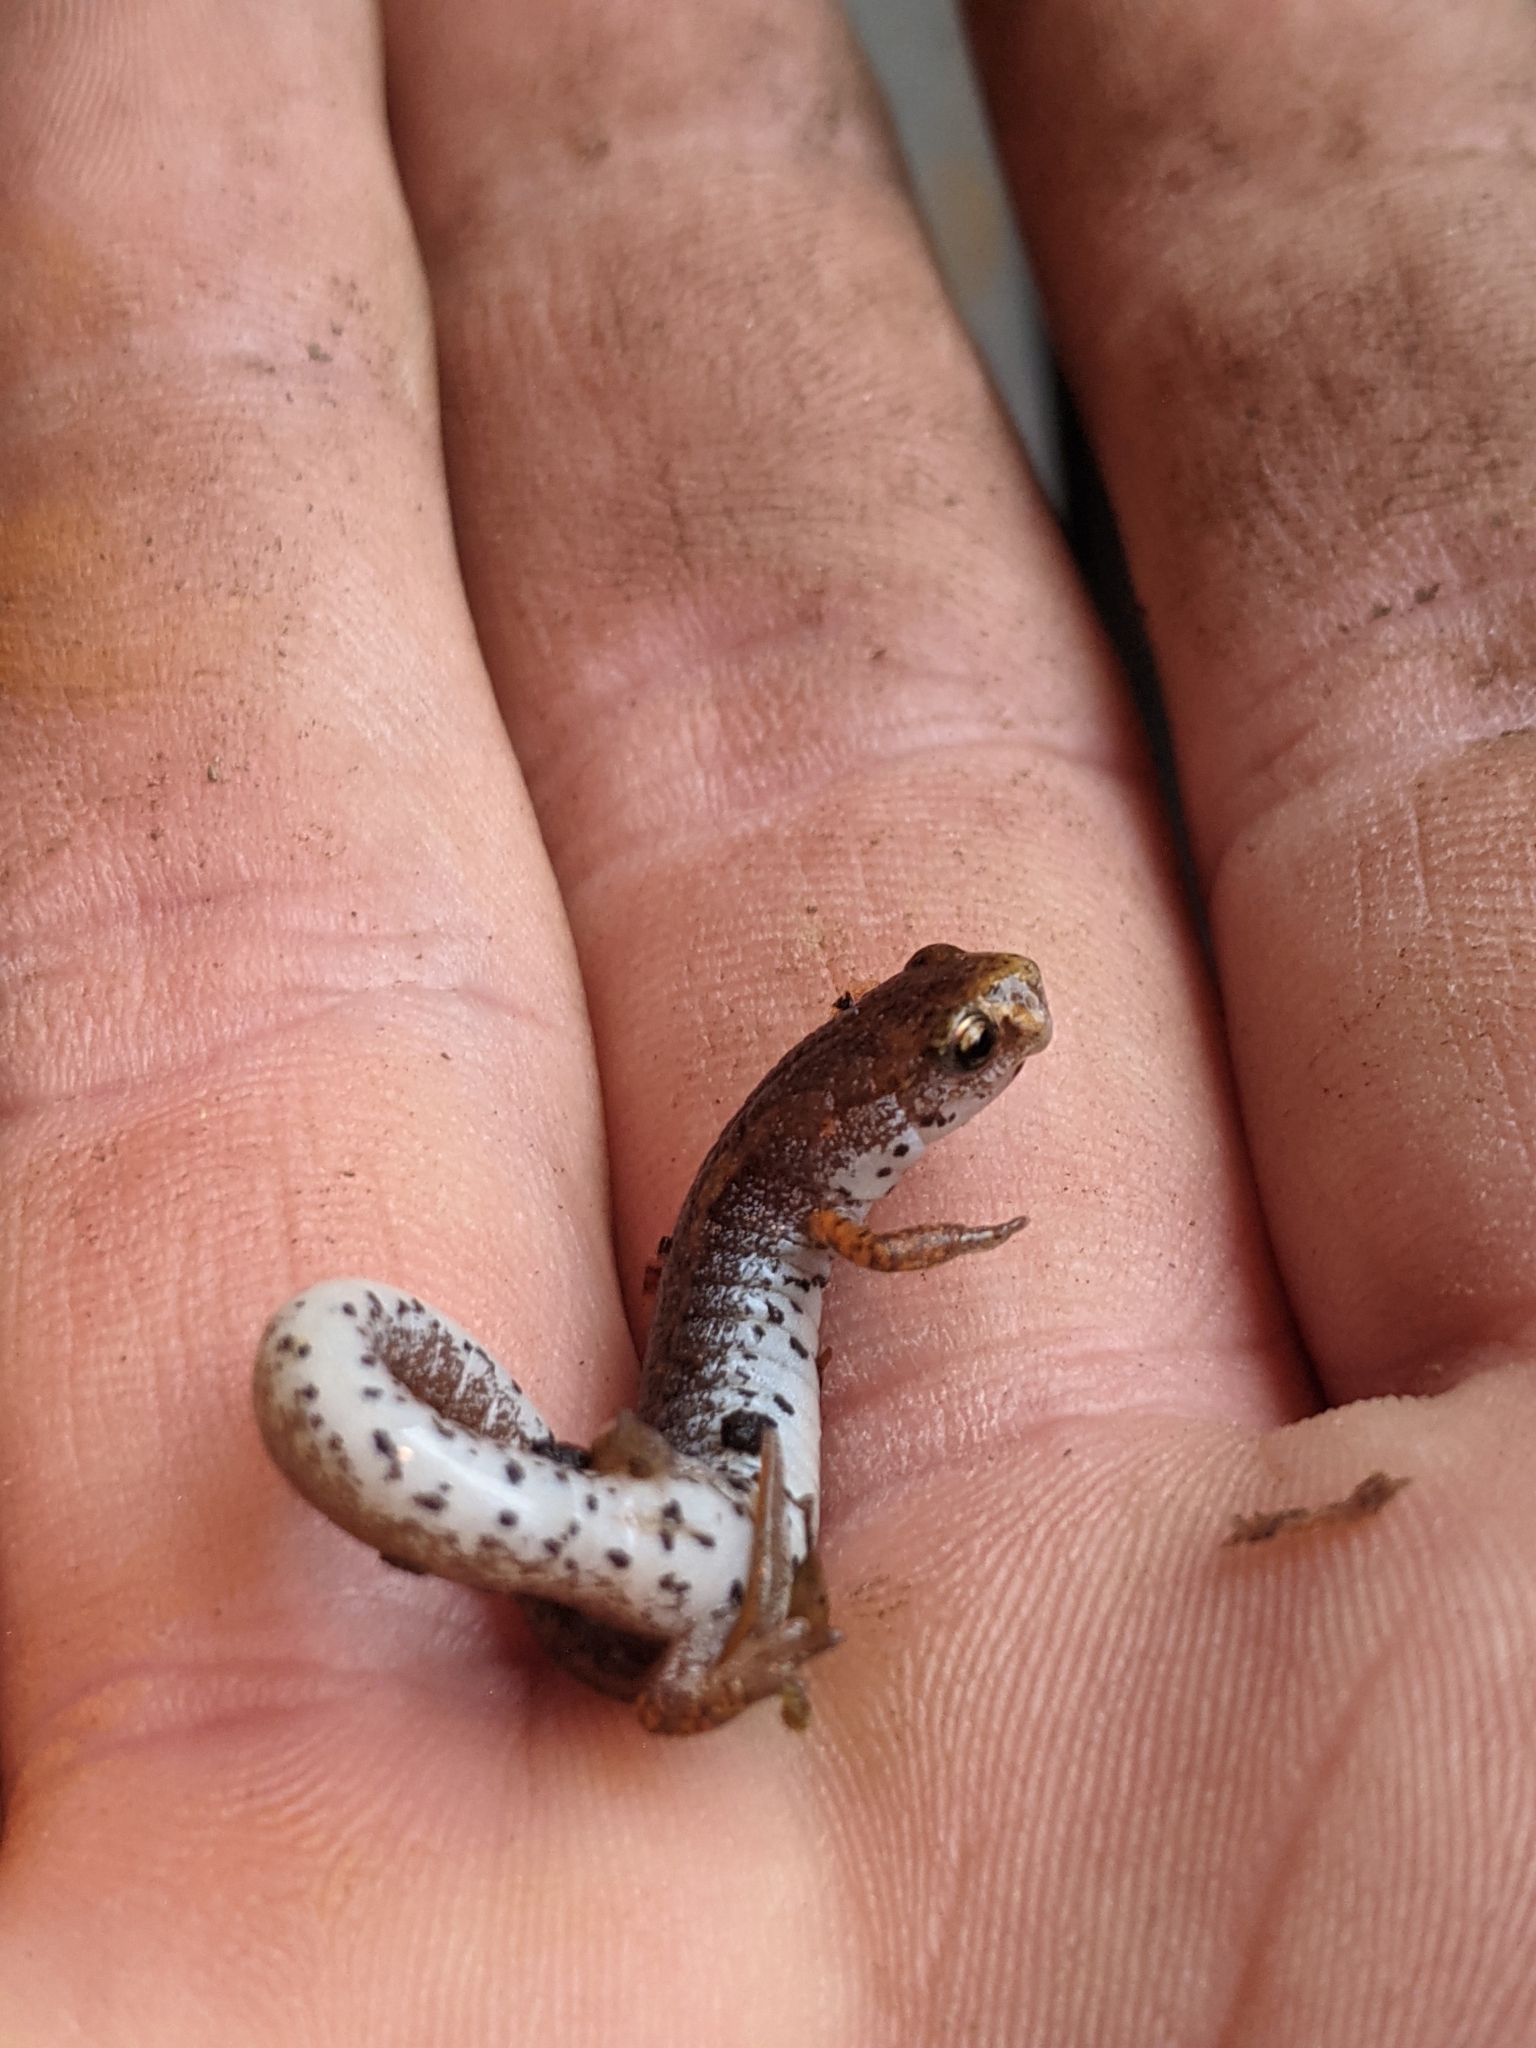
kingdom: Animalia
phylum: Chordata
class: Amphibia
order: Caudata
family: Plethodontidae
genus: Hemidactylium
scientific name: Hemidactylium scutatum
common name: Four-toed salamander
